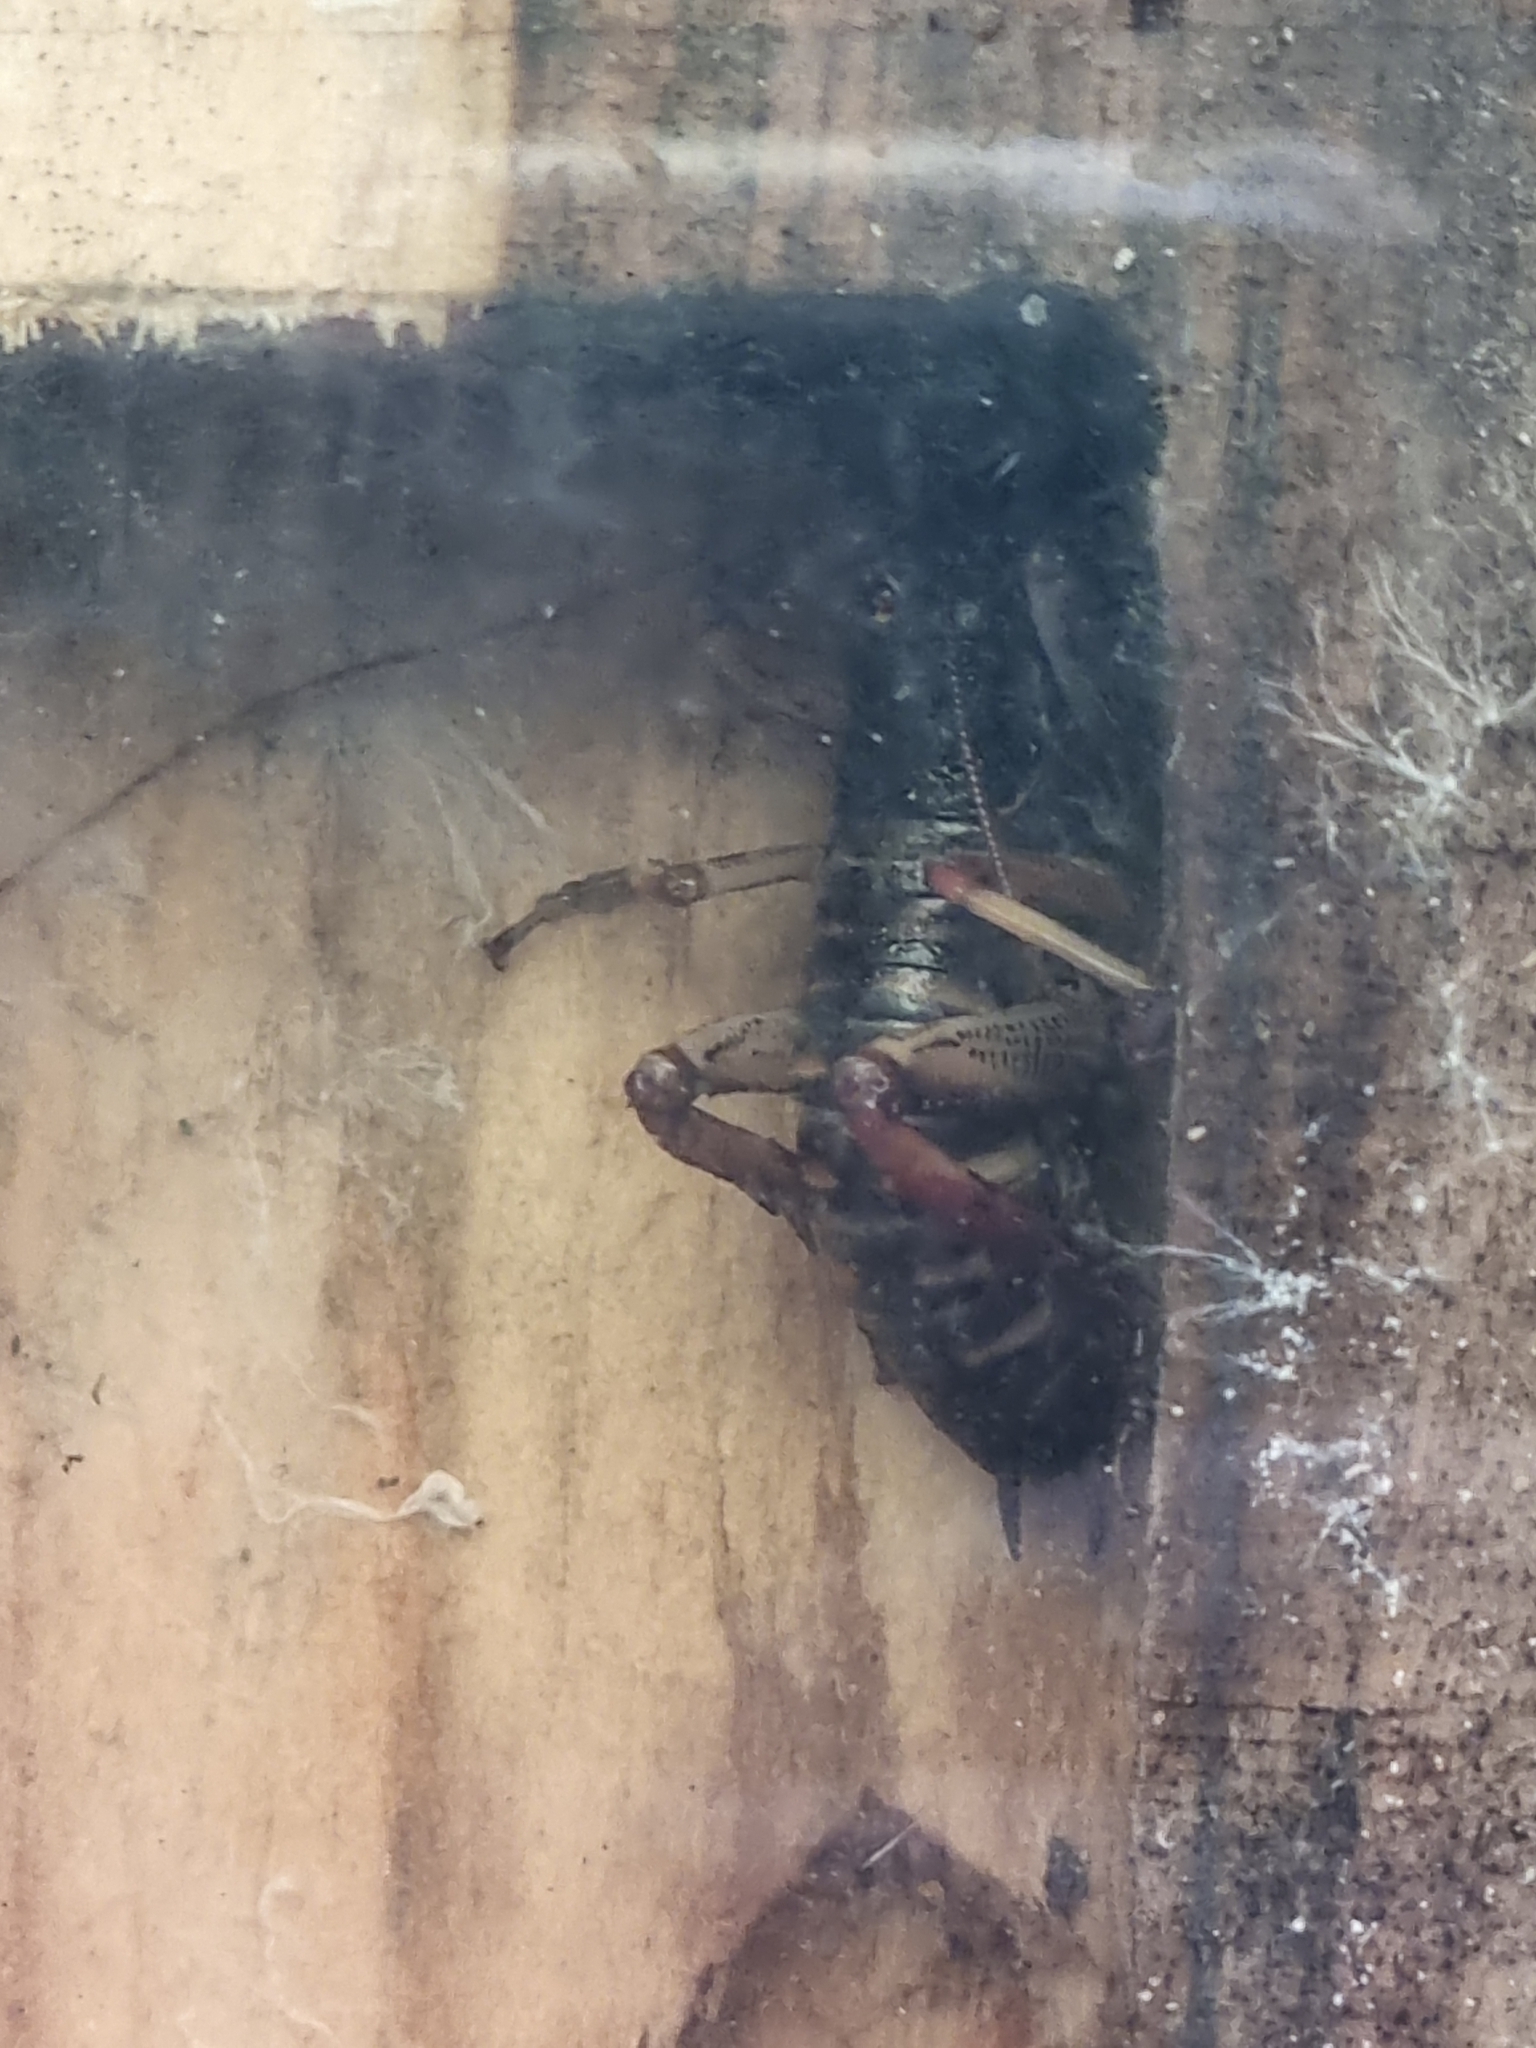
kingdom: Animalia
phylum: Arthropoda
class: Insecta
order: Orthoptera
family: Anostostomatidae
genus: Hemideina
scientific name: Hemideina crassidens
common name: Wellington tree weta
